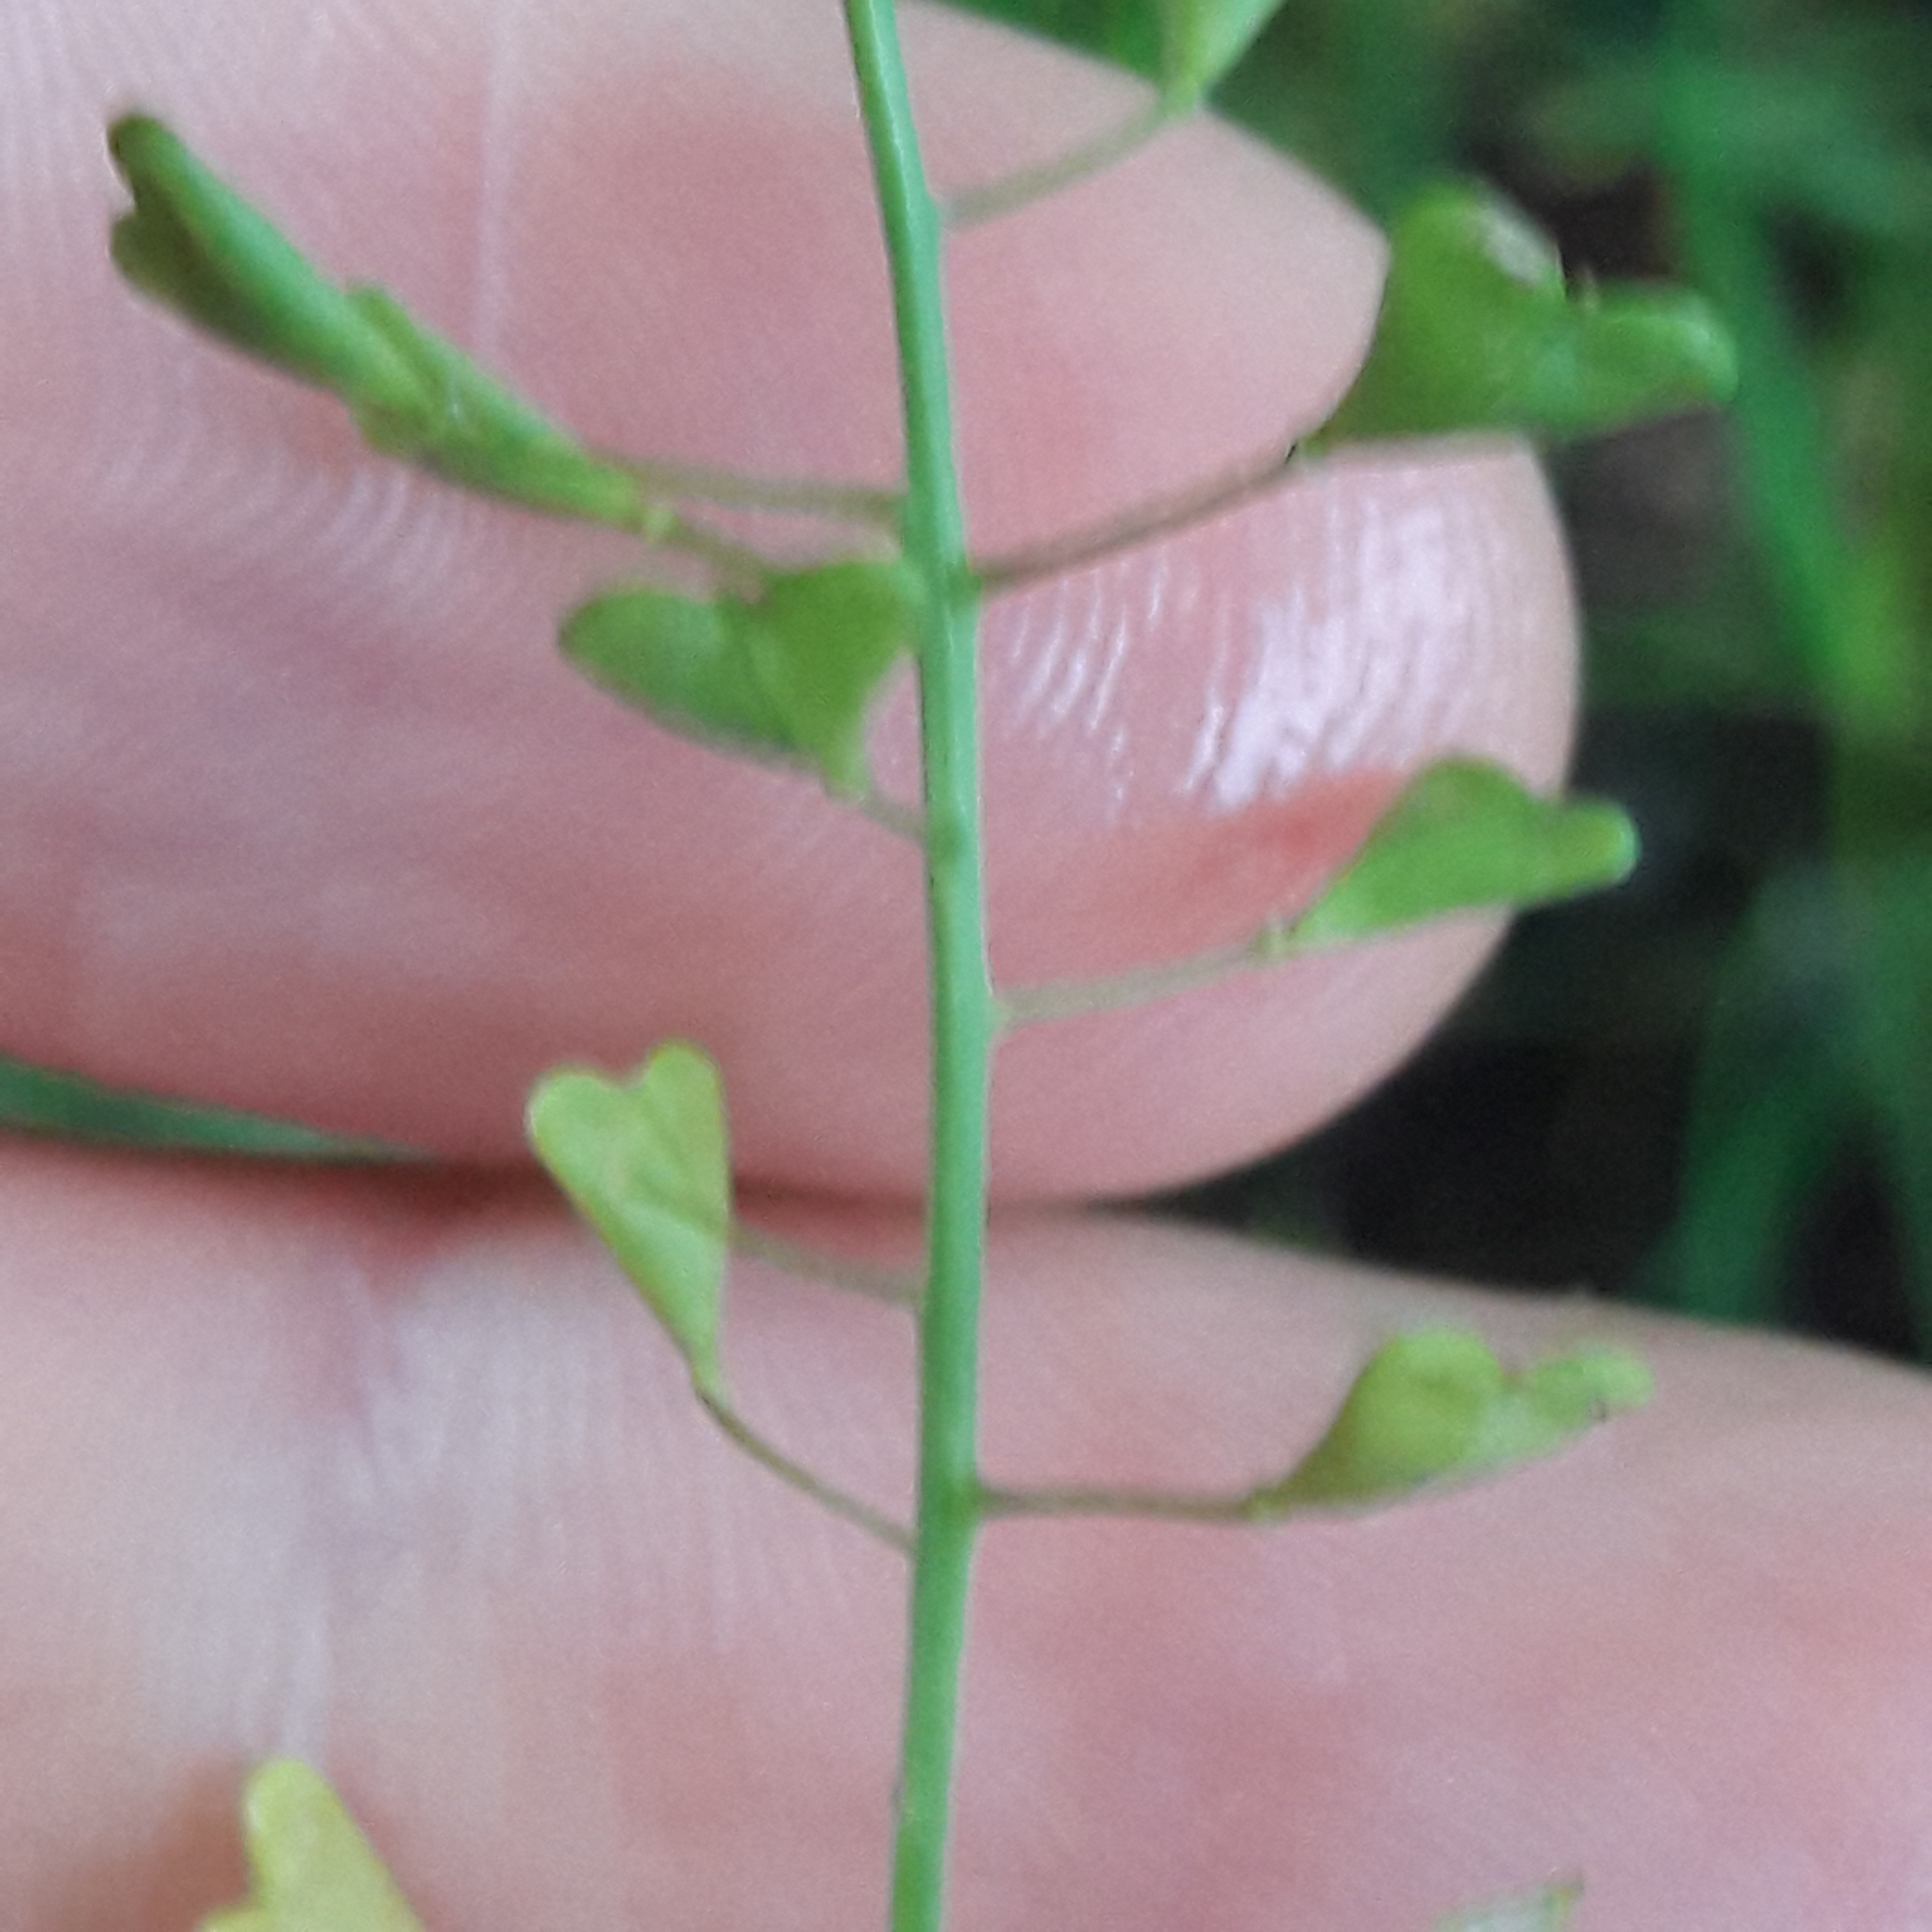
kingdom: Plantae
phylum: Tracheophyta
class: Magnoliopsida
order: Brassicales
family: Brassicaceae
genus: Capsella
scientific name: Capsella bursa-pastoris
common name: Shepherd's purse
